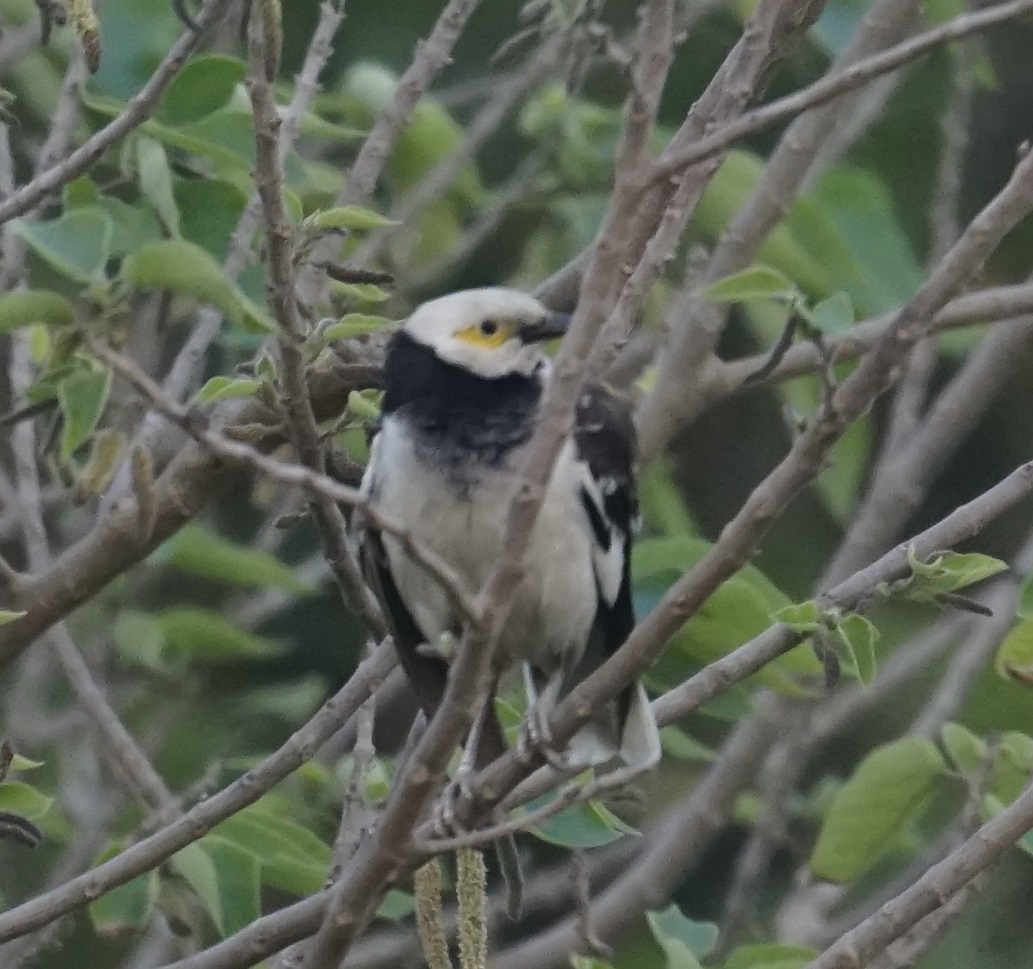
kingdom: Animalia
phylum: Chordata
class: Aves
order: Passeriformes
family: Sturnidae
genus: Gracupica
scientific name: Gracupica nigricollis
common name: Black-collared starling
